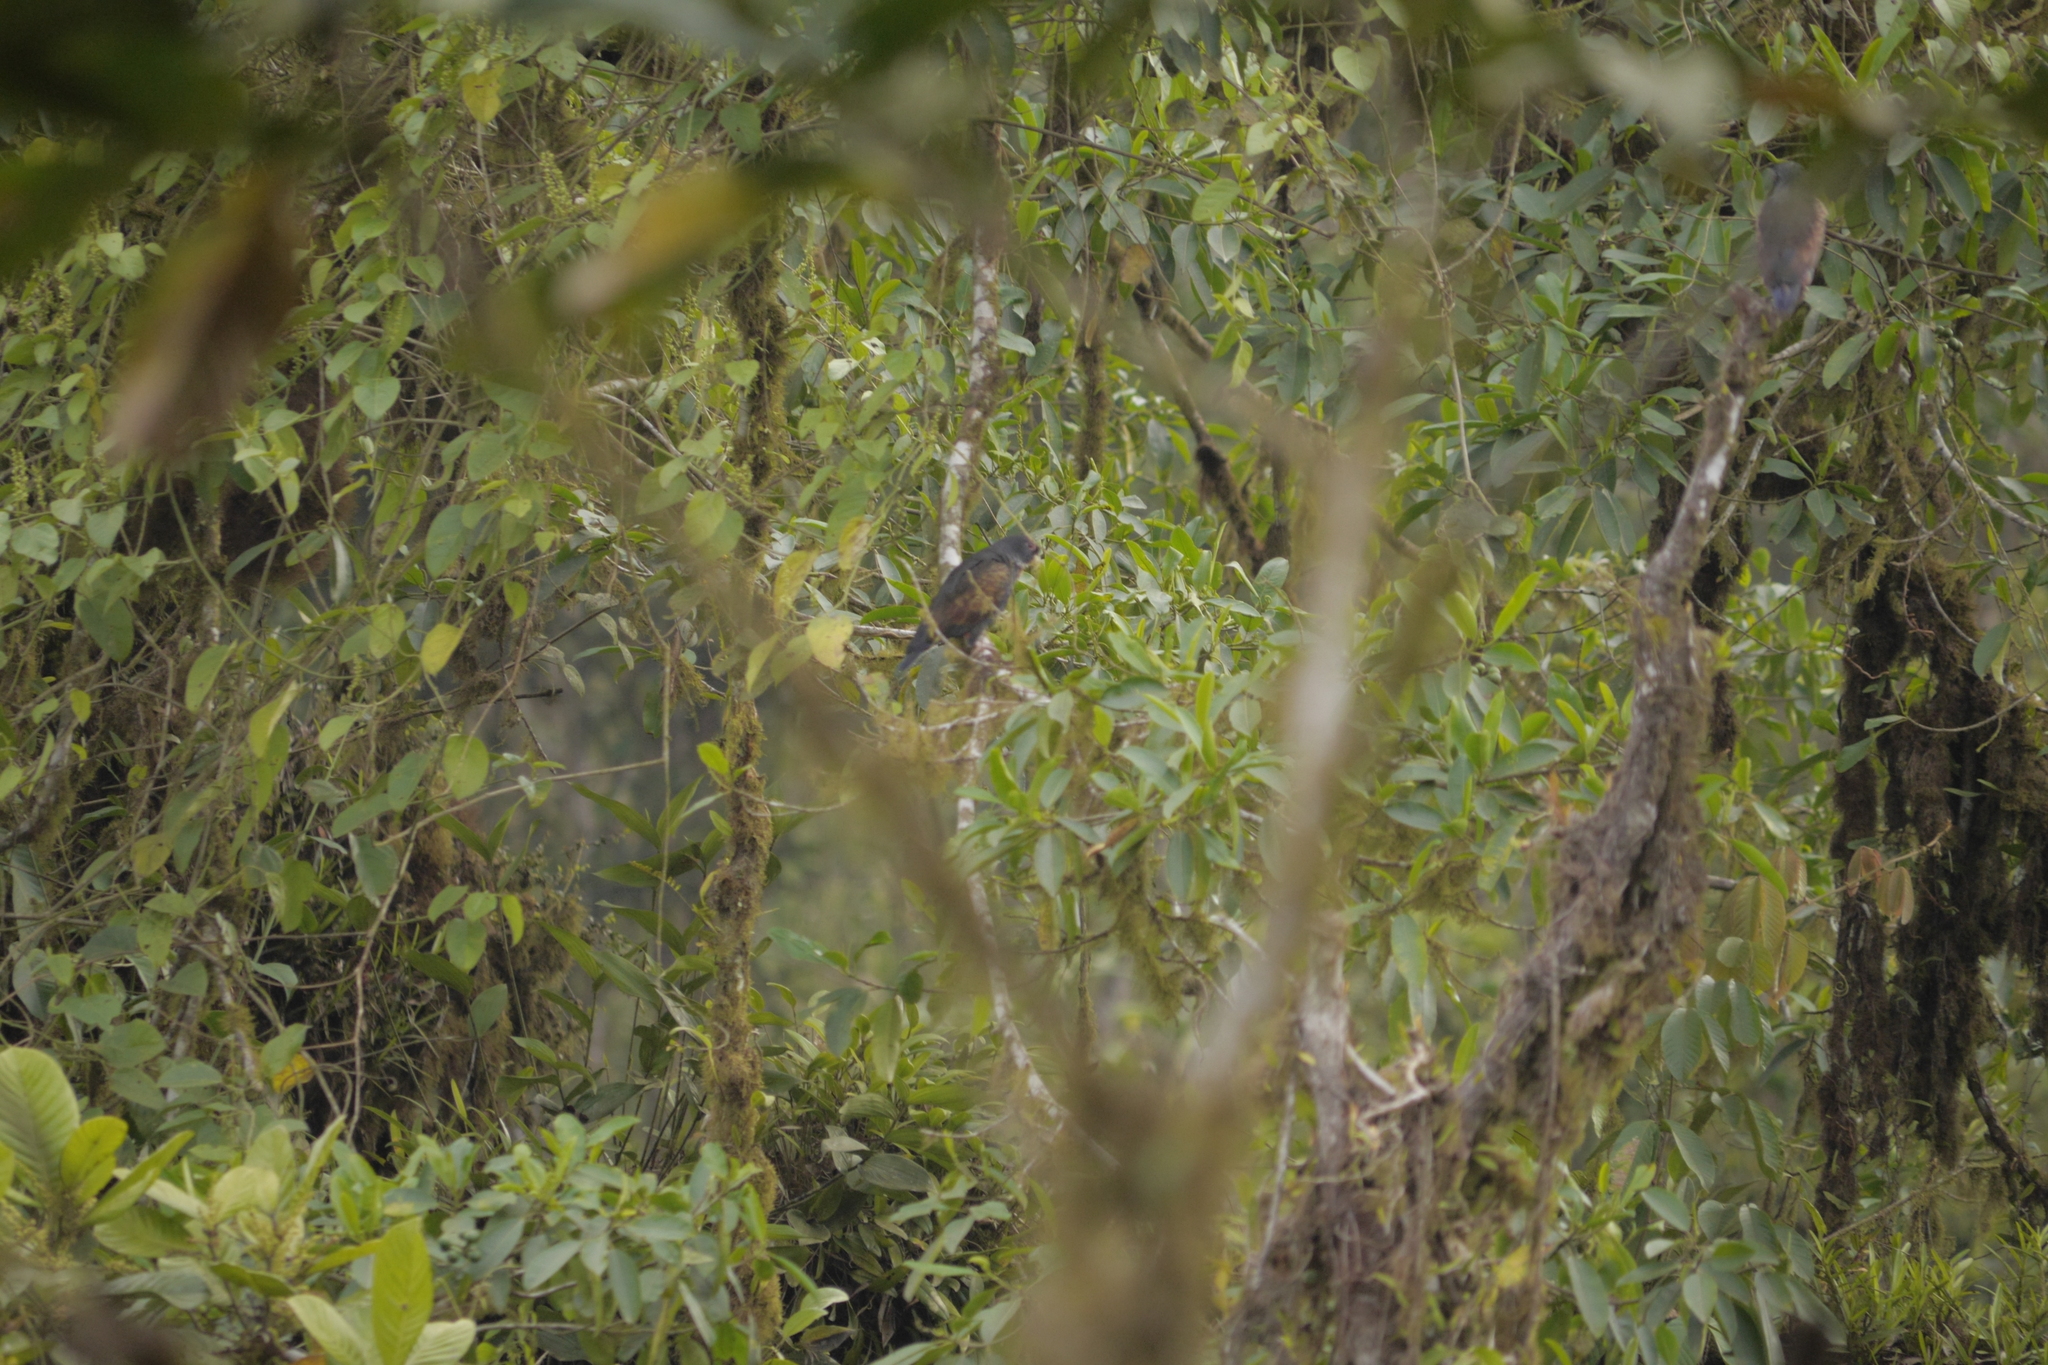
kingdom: Animalia
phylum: Chordata
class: Aves
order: Psittaciformes
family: Psittacidae
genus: Pionus
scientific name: Pionus chalcopterus
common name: Bronze-winged parrot
